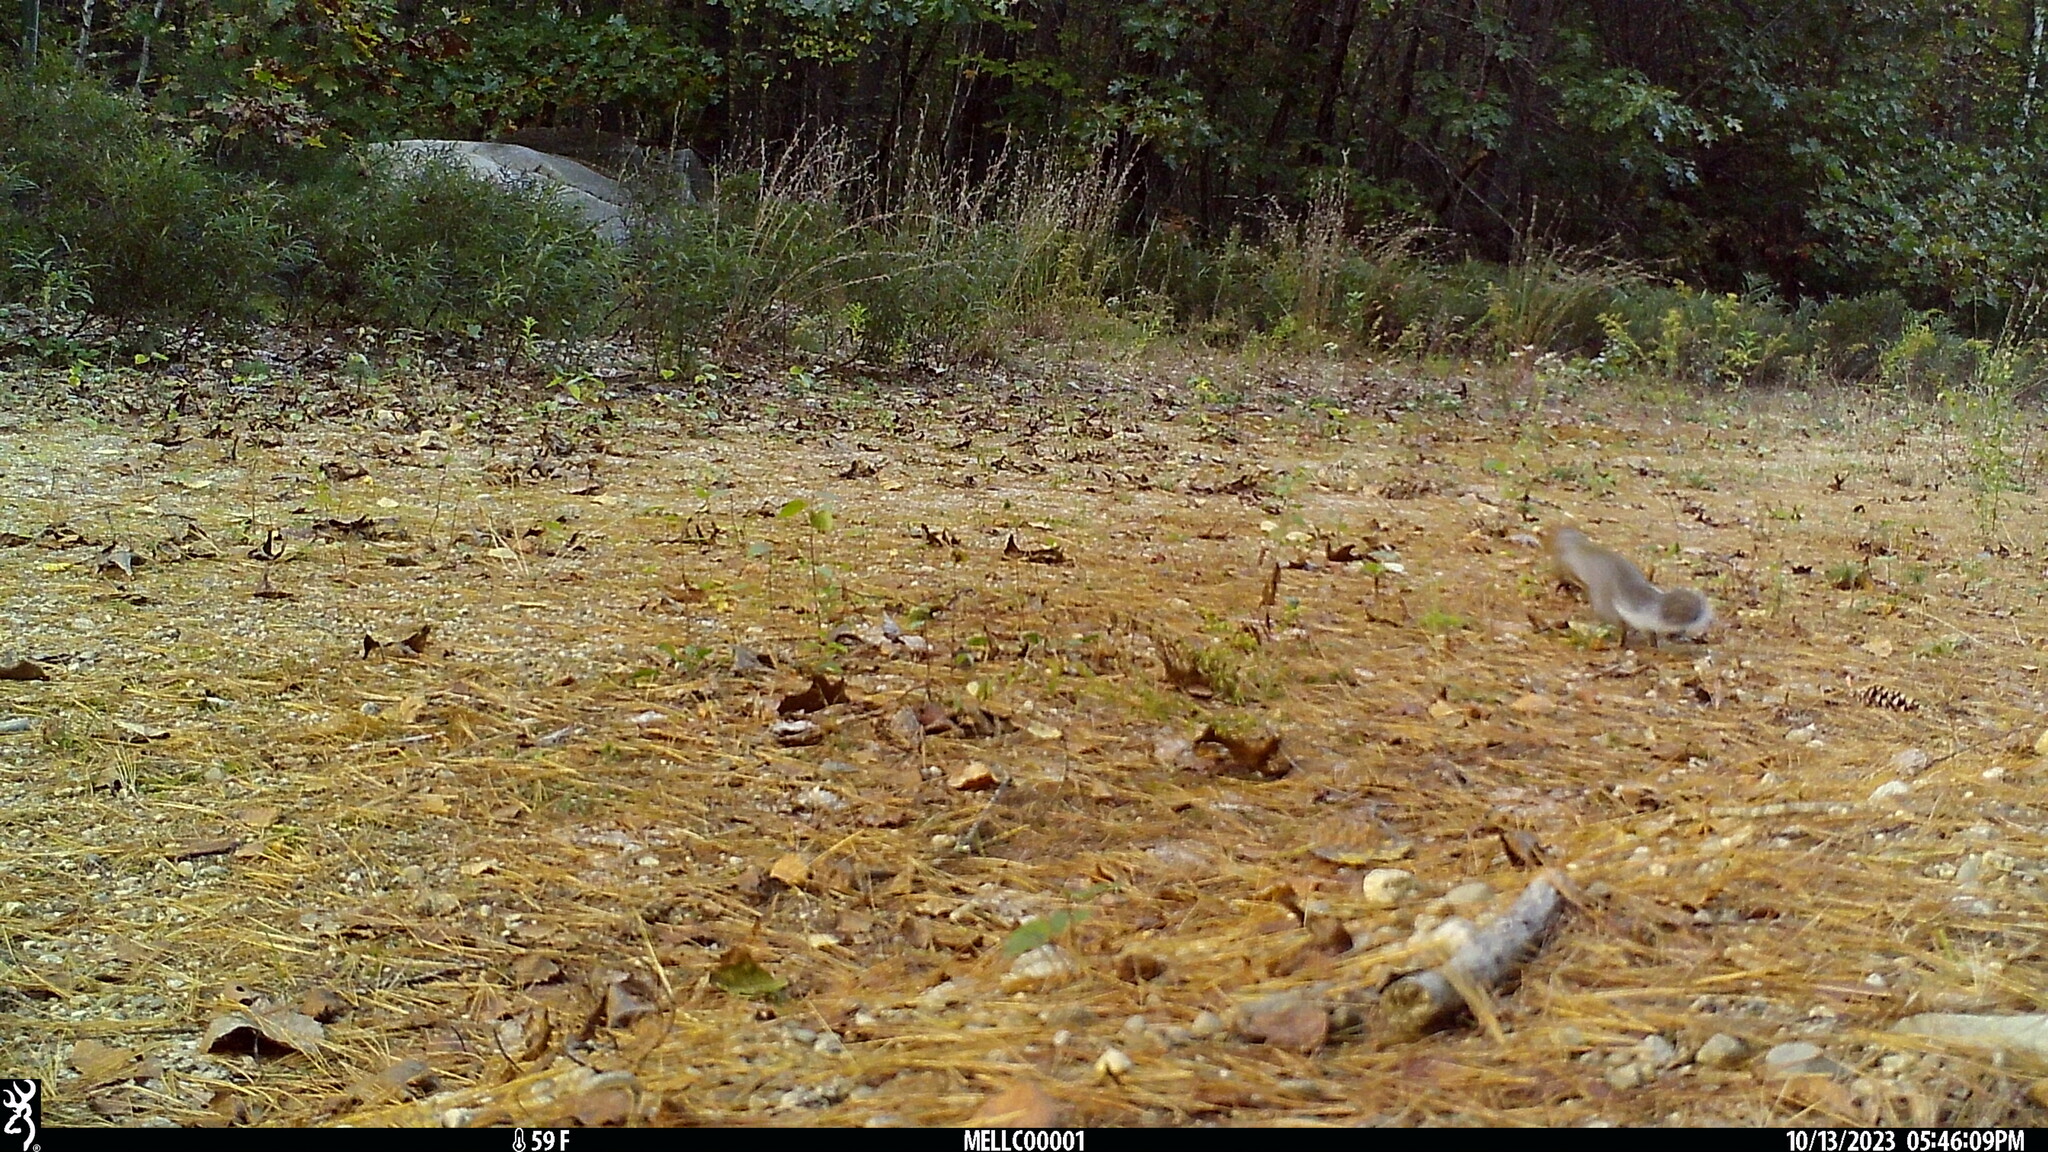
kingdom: Animalia
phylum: Chordata
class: Mammalia
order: Rodentia
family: Sciuridae
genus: Sciurus
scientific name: Sciurus carolinensis
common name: Eastern gray squirrel
